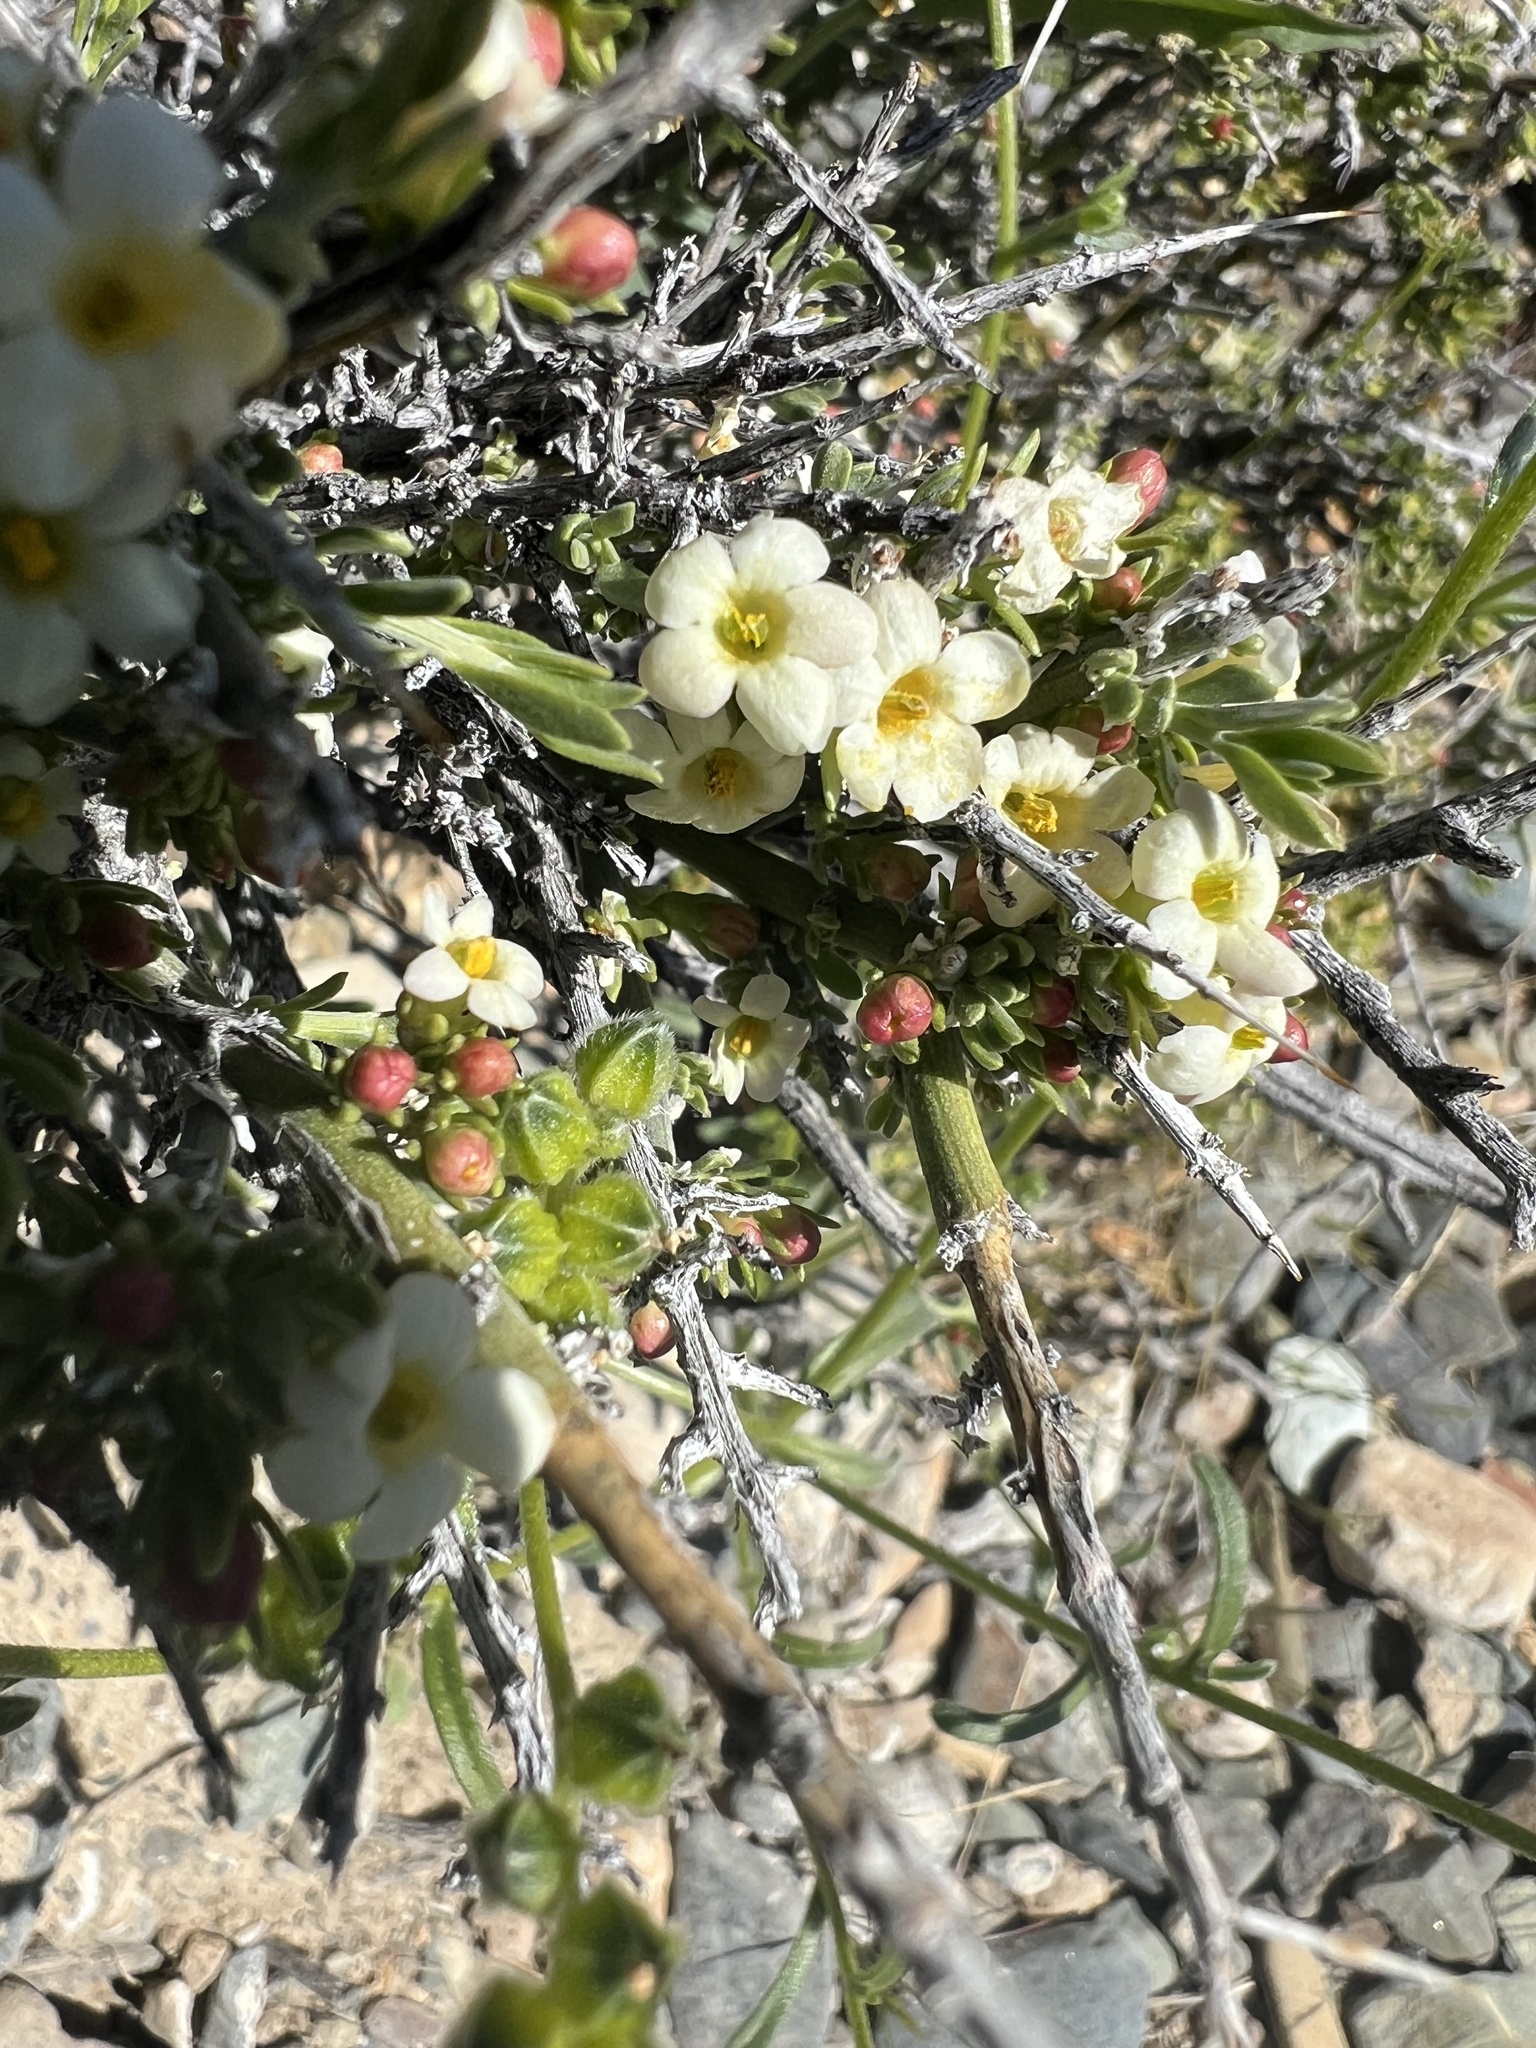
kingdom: Plantae
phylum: Tracheophyta
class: Magnoliopsida
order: Lamiales
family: Oleaceae
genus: Menodora
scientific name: Menodora spinescens
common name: Spiny menodora
